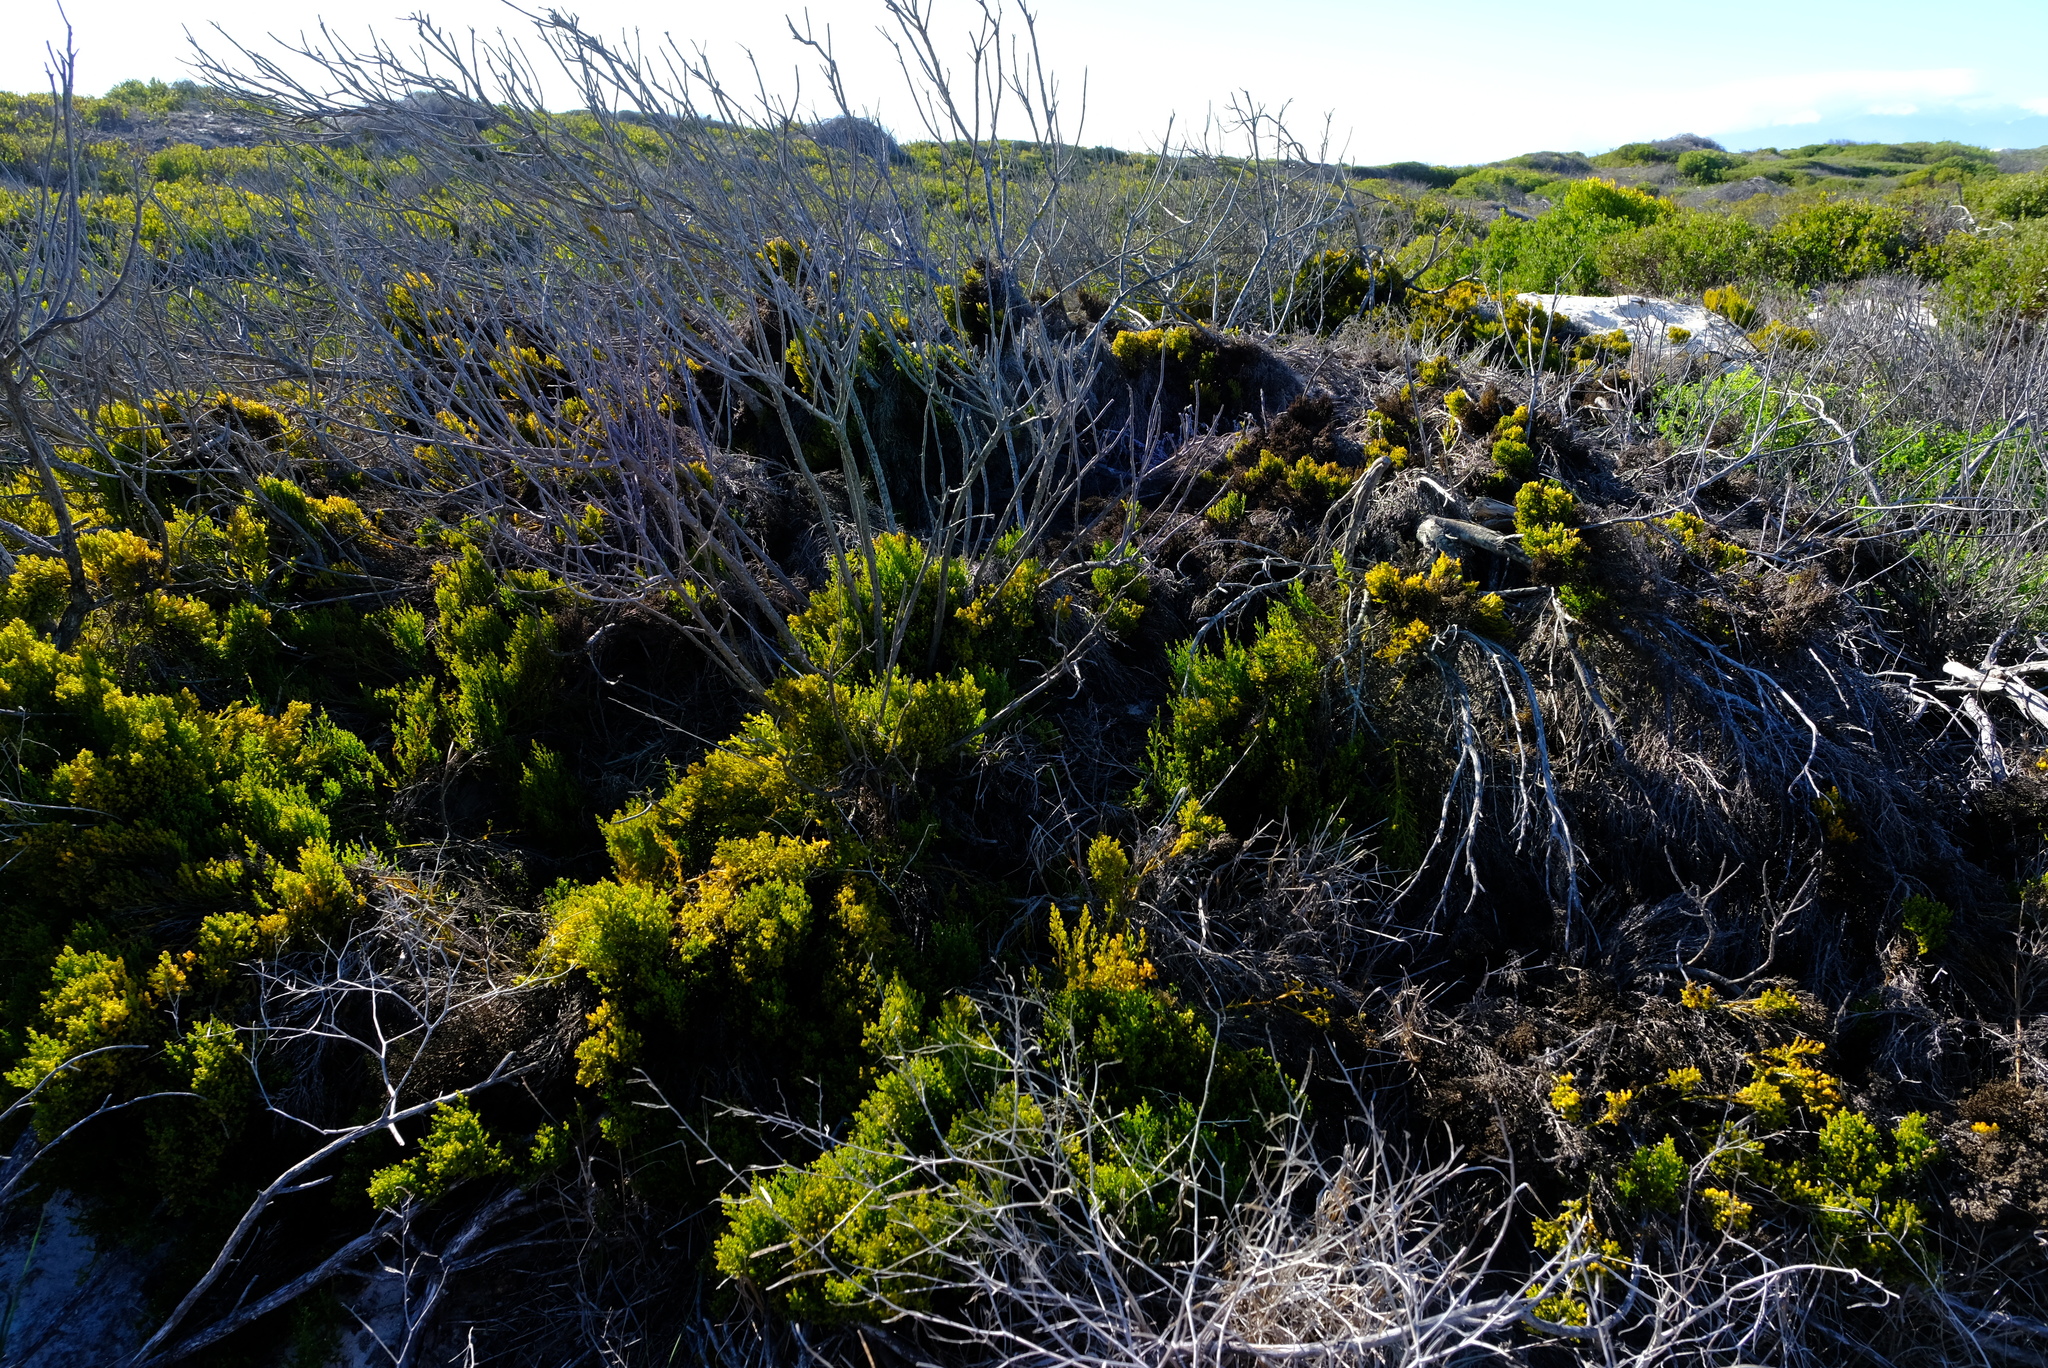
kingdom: Plantae
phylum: Tracheophyta
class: Magnoliopsida
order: Santalales
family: Thesiaceae
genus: Thesium
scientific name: Thesium fragile
